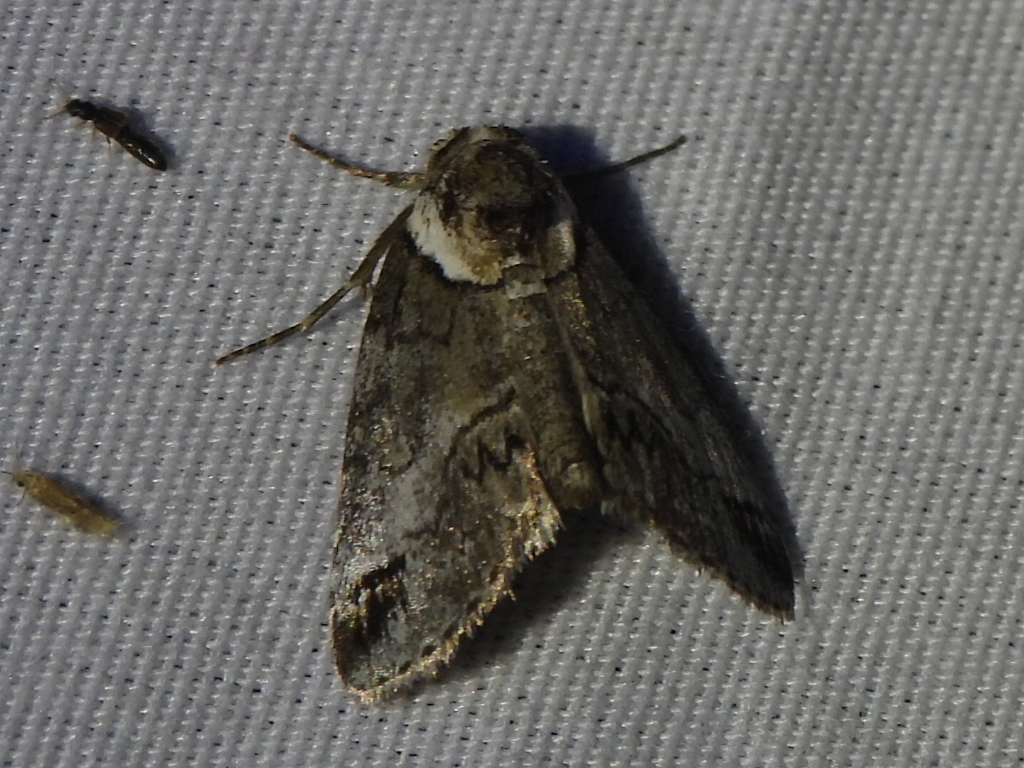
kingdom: Animalia
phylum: Arthropoda
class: Insecta
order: Lepidoptera
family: Nolidae
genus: Baileya
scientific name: Baileya australis
